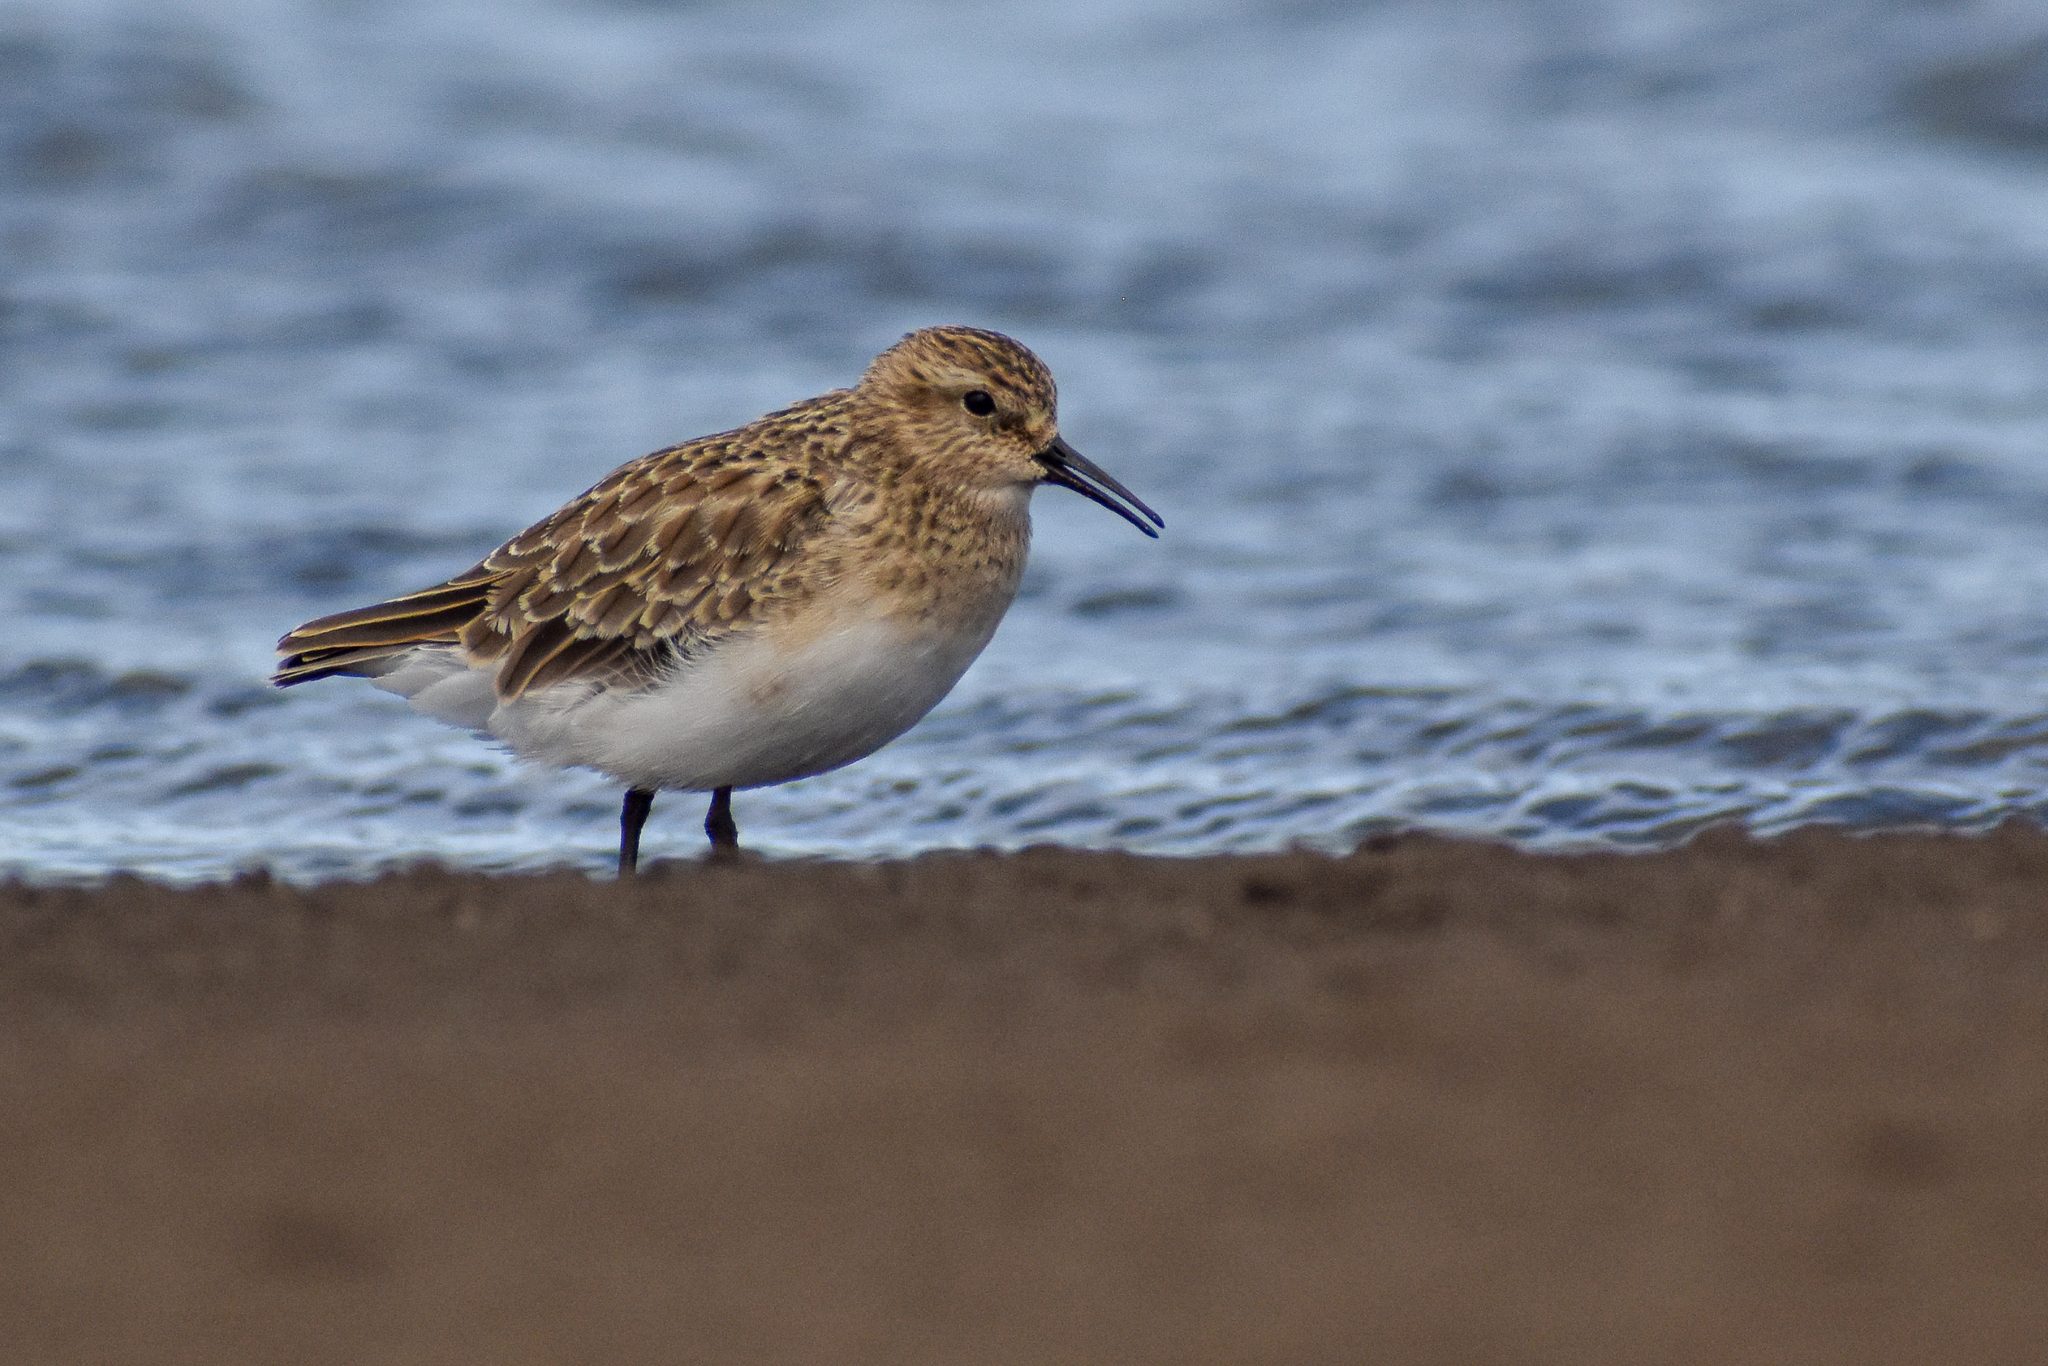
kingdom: Animalia
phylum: Chordata
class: Aves
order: Charadriiformes
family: Scolopacidae
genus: Calidris
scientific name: Calidris bairdii
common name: Baird's sandpiper
